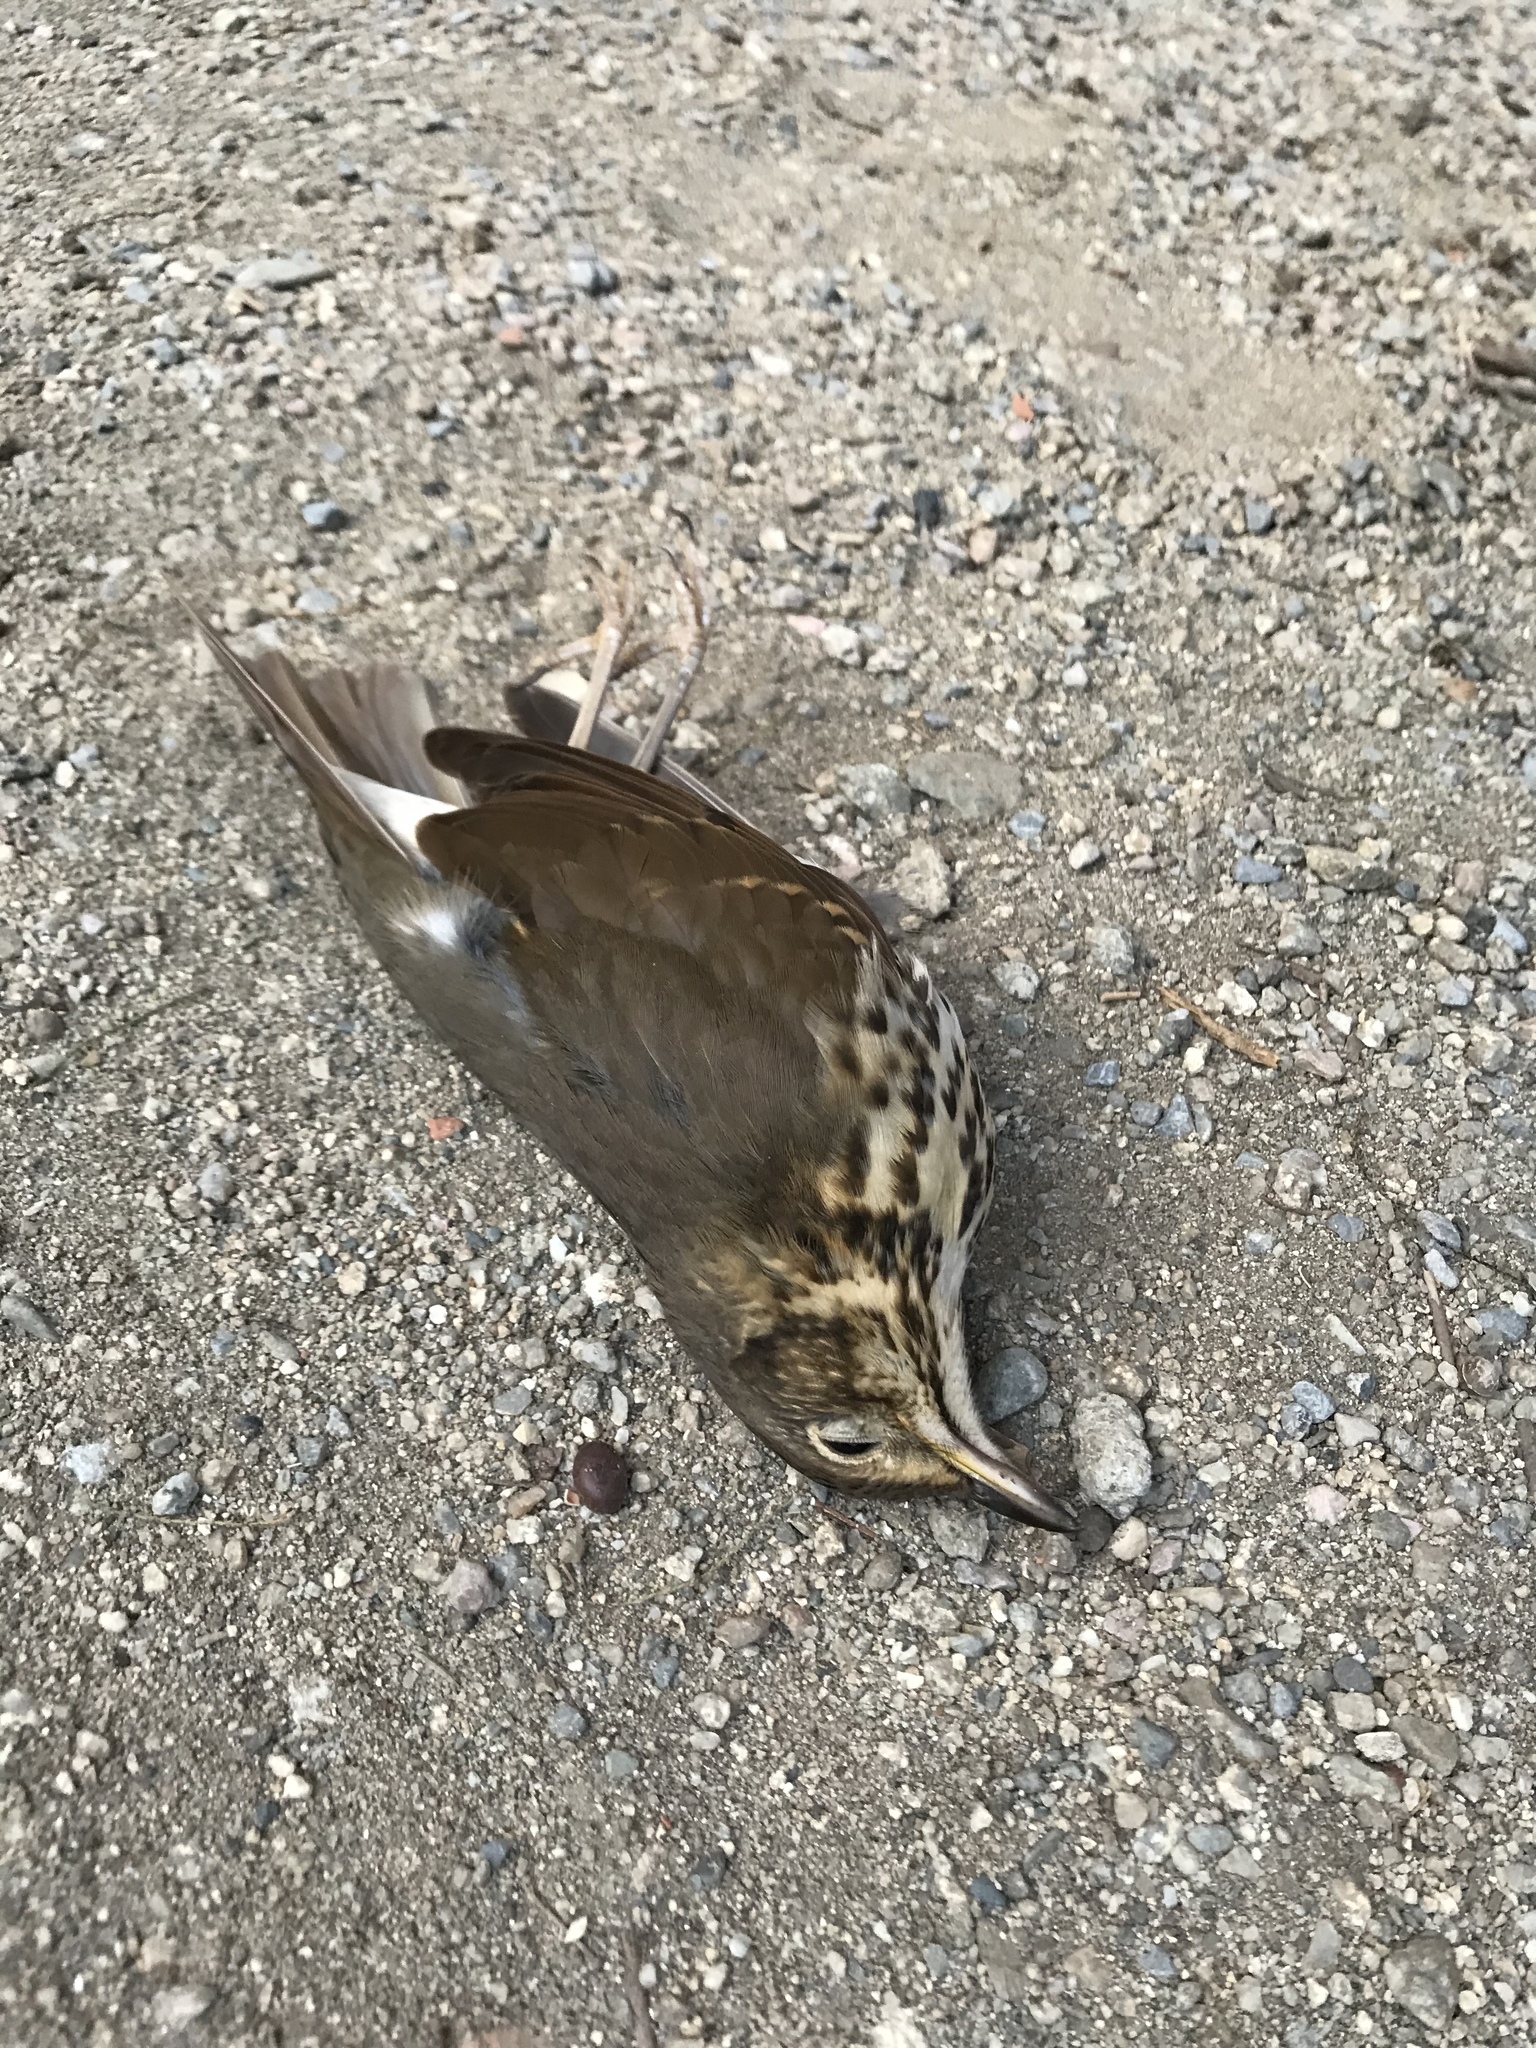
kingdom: Animalia
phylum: Chordata
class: Aves
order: Passeriformes
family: Turdidae
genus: Turdus
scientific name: Turdus philomelos
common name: Song thrush
